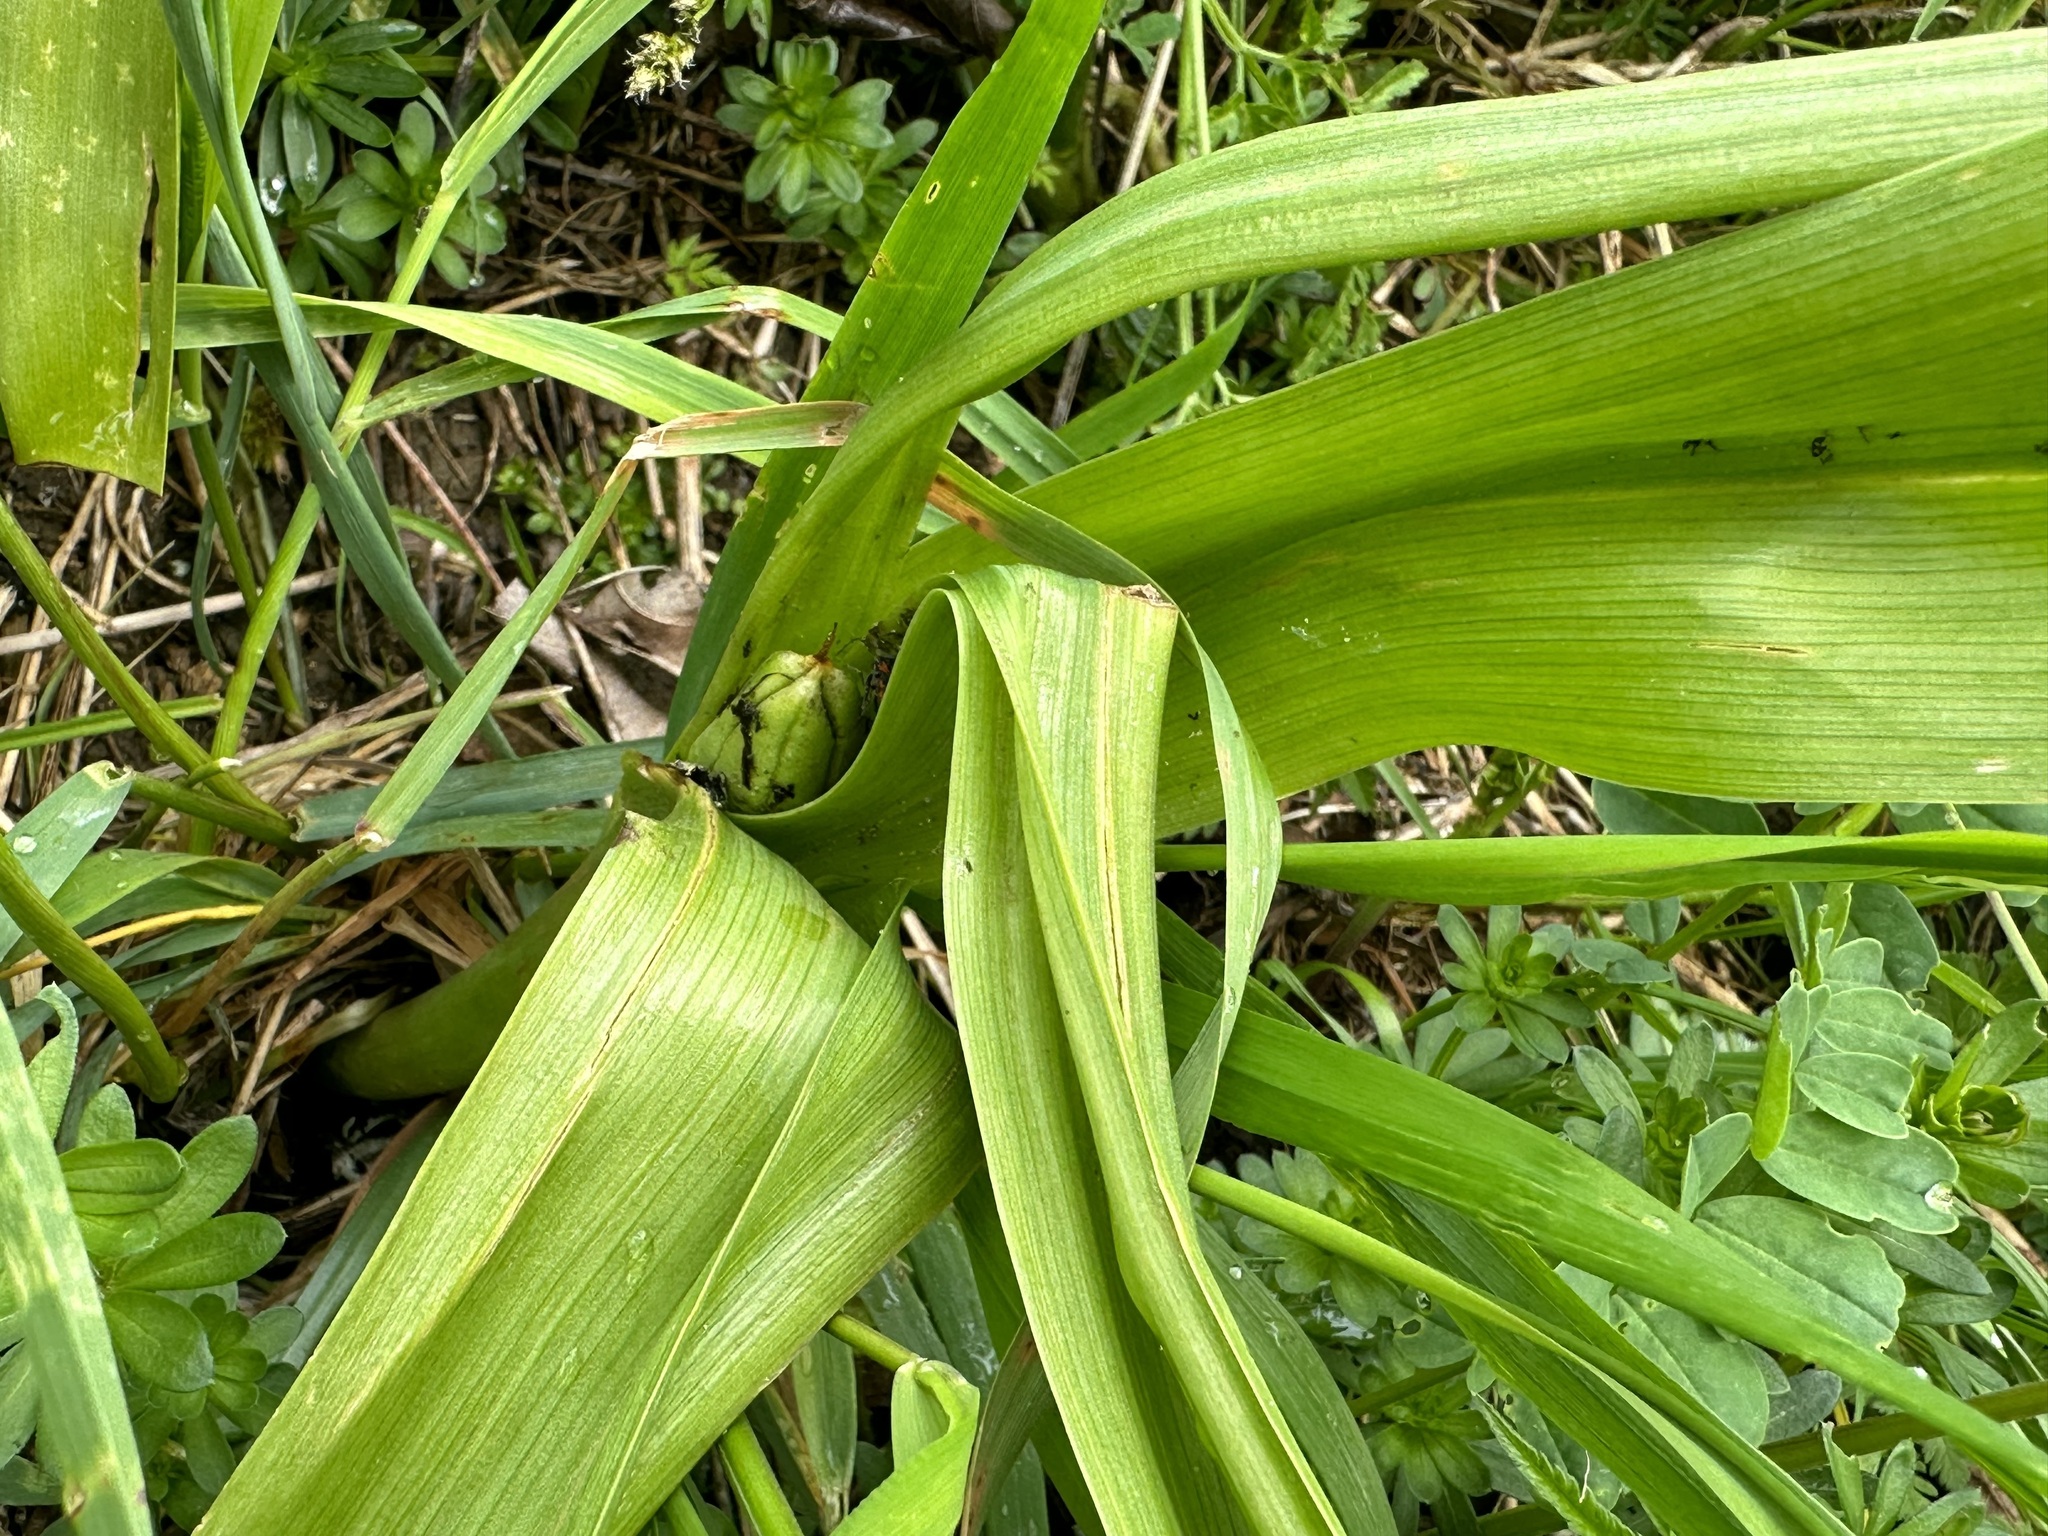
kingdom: Plantae
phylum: Tracheophyta
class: Liliopsida
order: Liliales
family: Colchicaceae
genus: Colchicum
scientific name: Colchicum autumnale
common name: Autumn crocus
